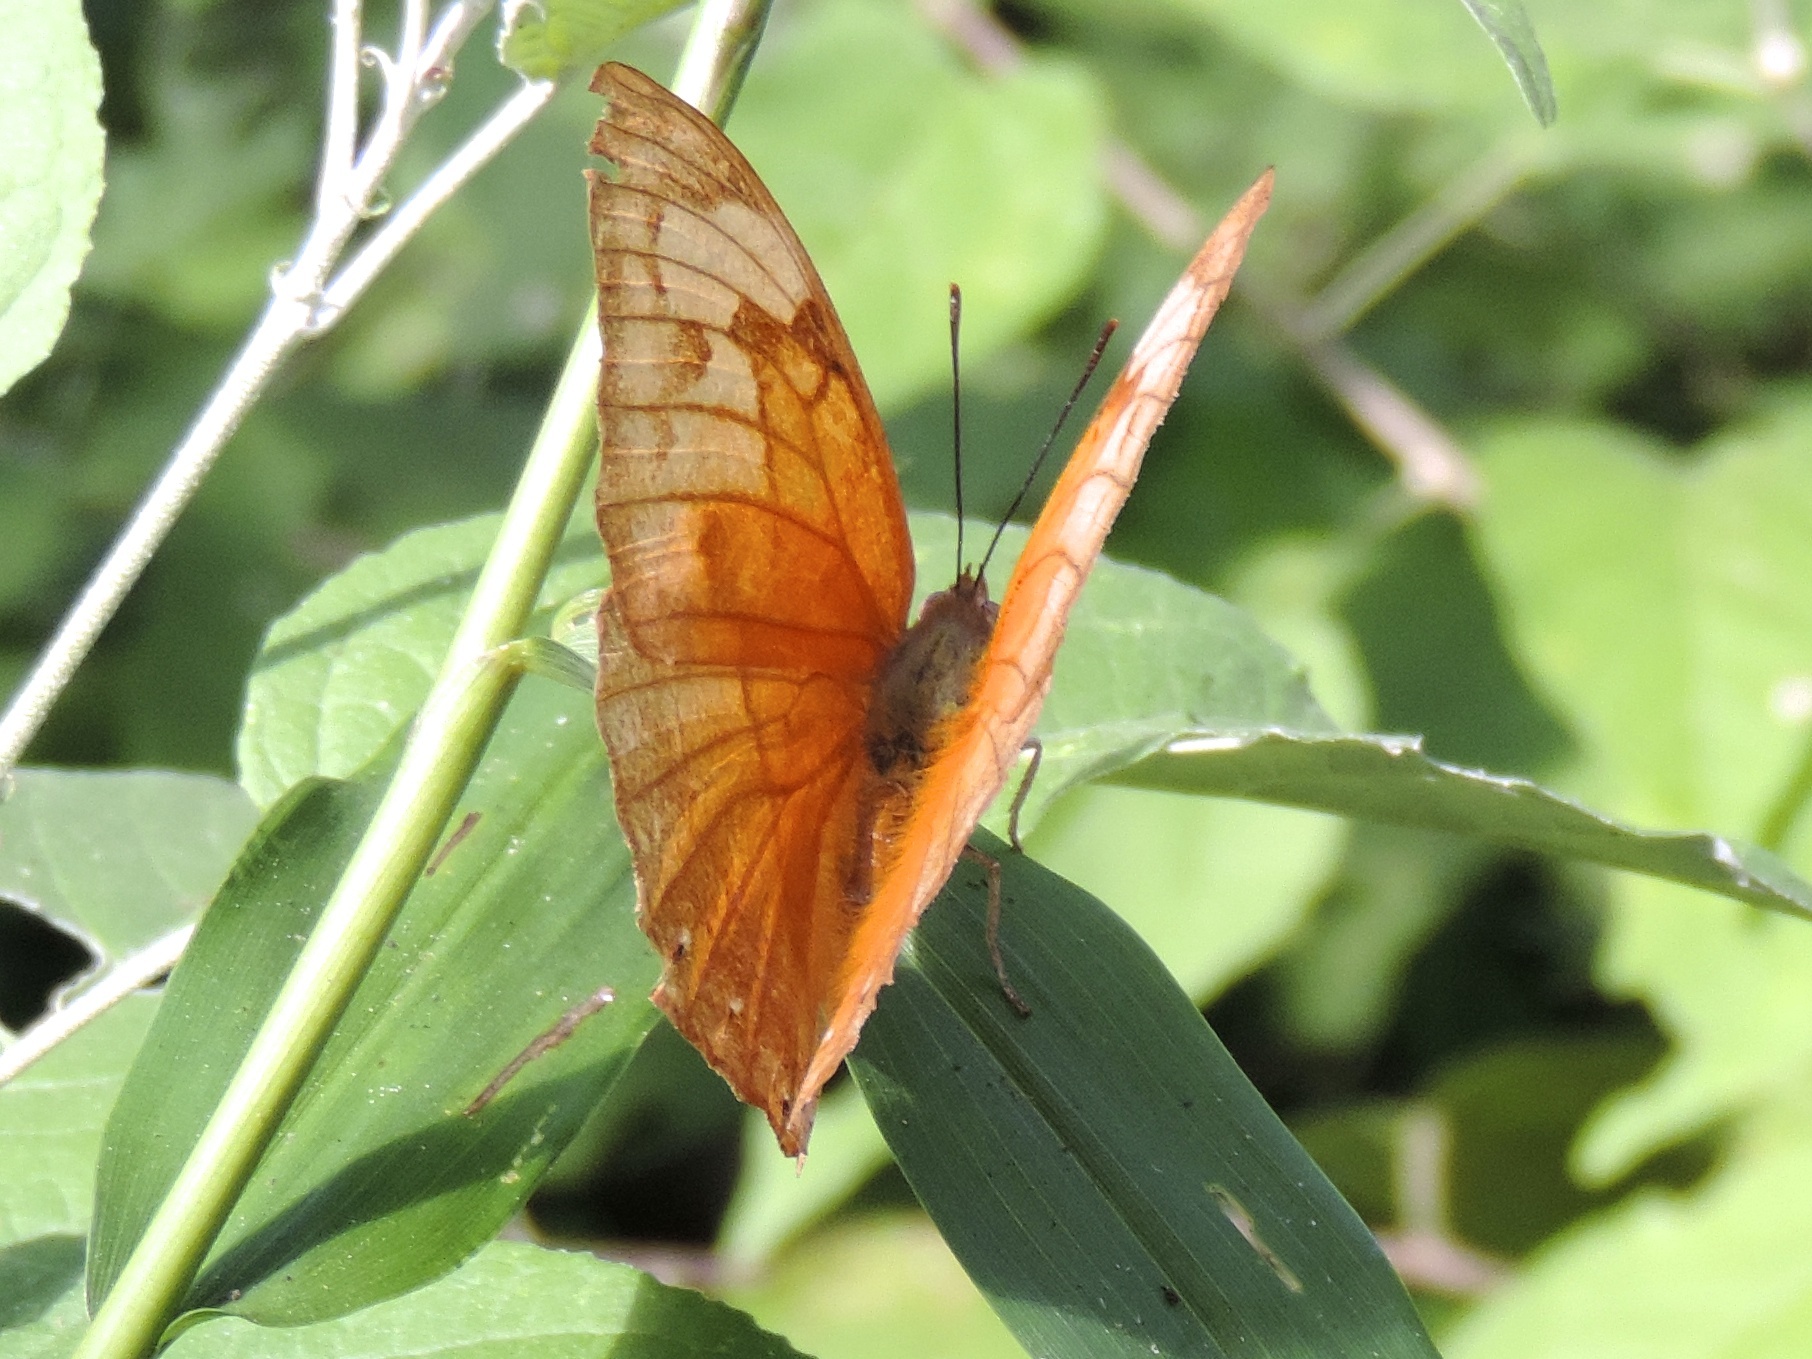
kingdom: Animalia
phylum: Arthropoda
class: Insecta
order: Lepidoptera
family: Nymphalidae
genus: Anaea
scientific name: Anaea
